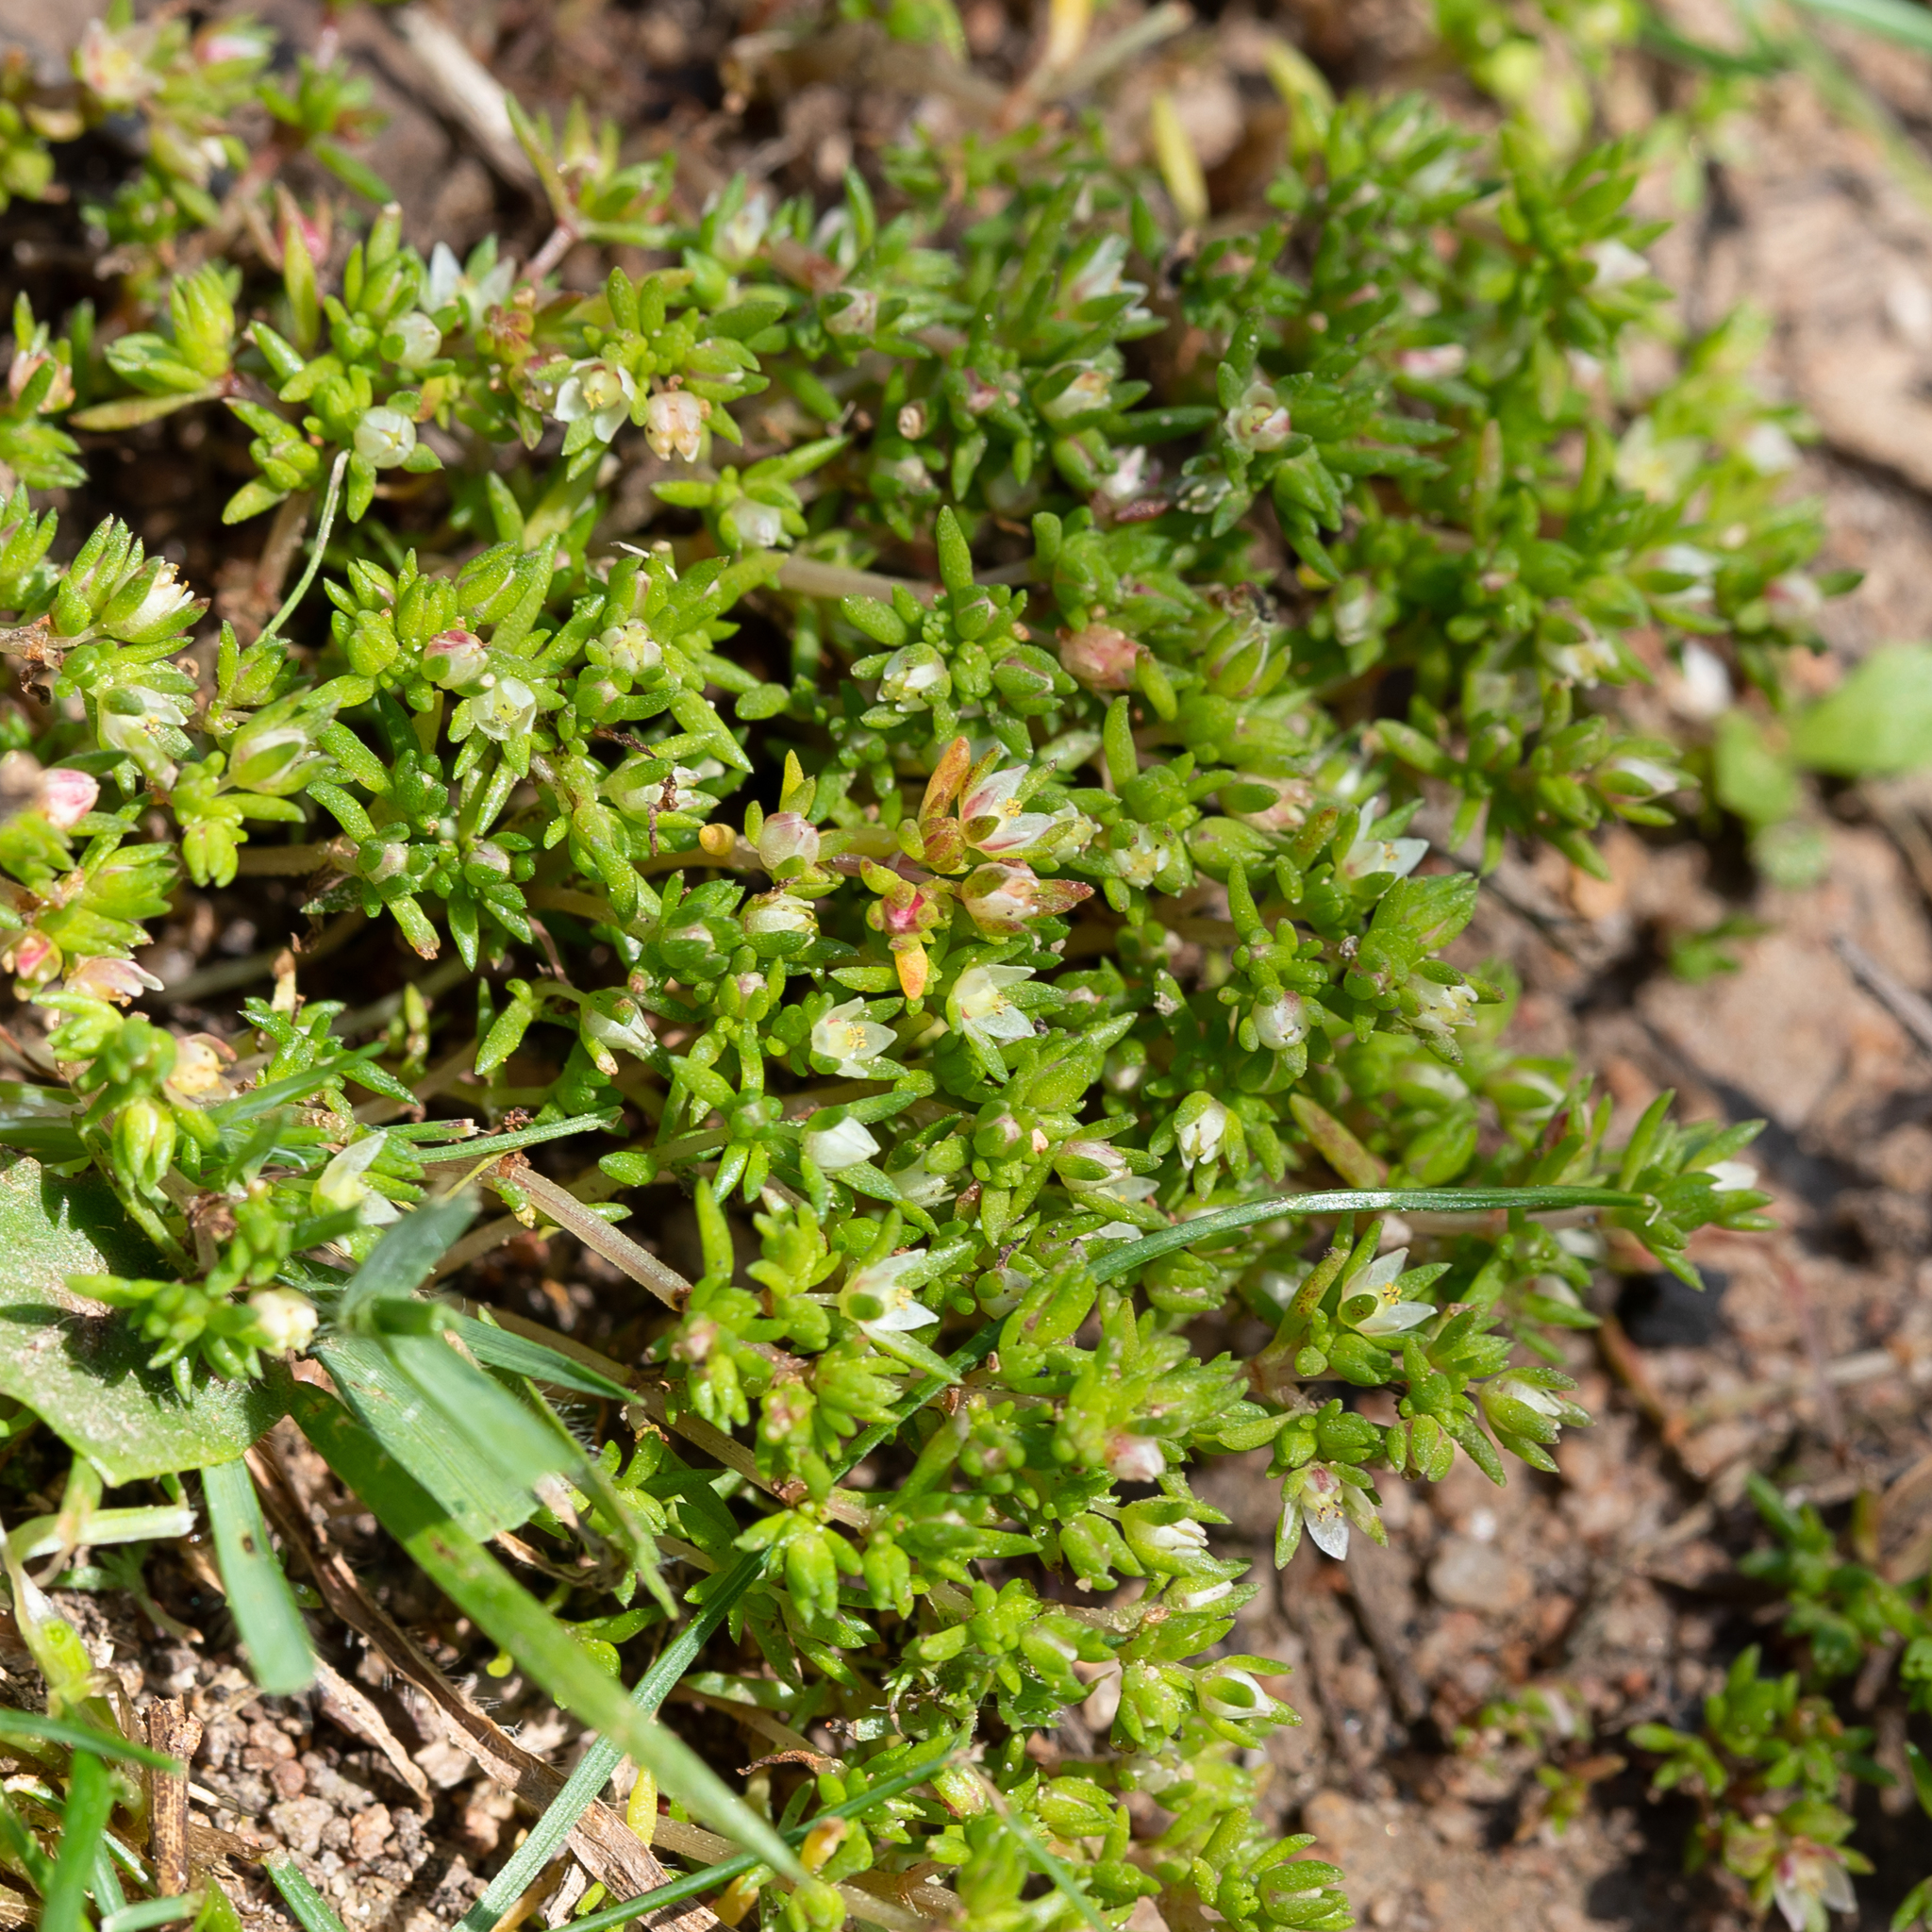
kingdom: Plantae
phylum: Tracheophyta
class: Magnoliopsida
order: Saxifragales
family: Crassulaceae
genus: Crassula
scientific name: Crassula decumbens
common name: Scilly pigmyweed
